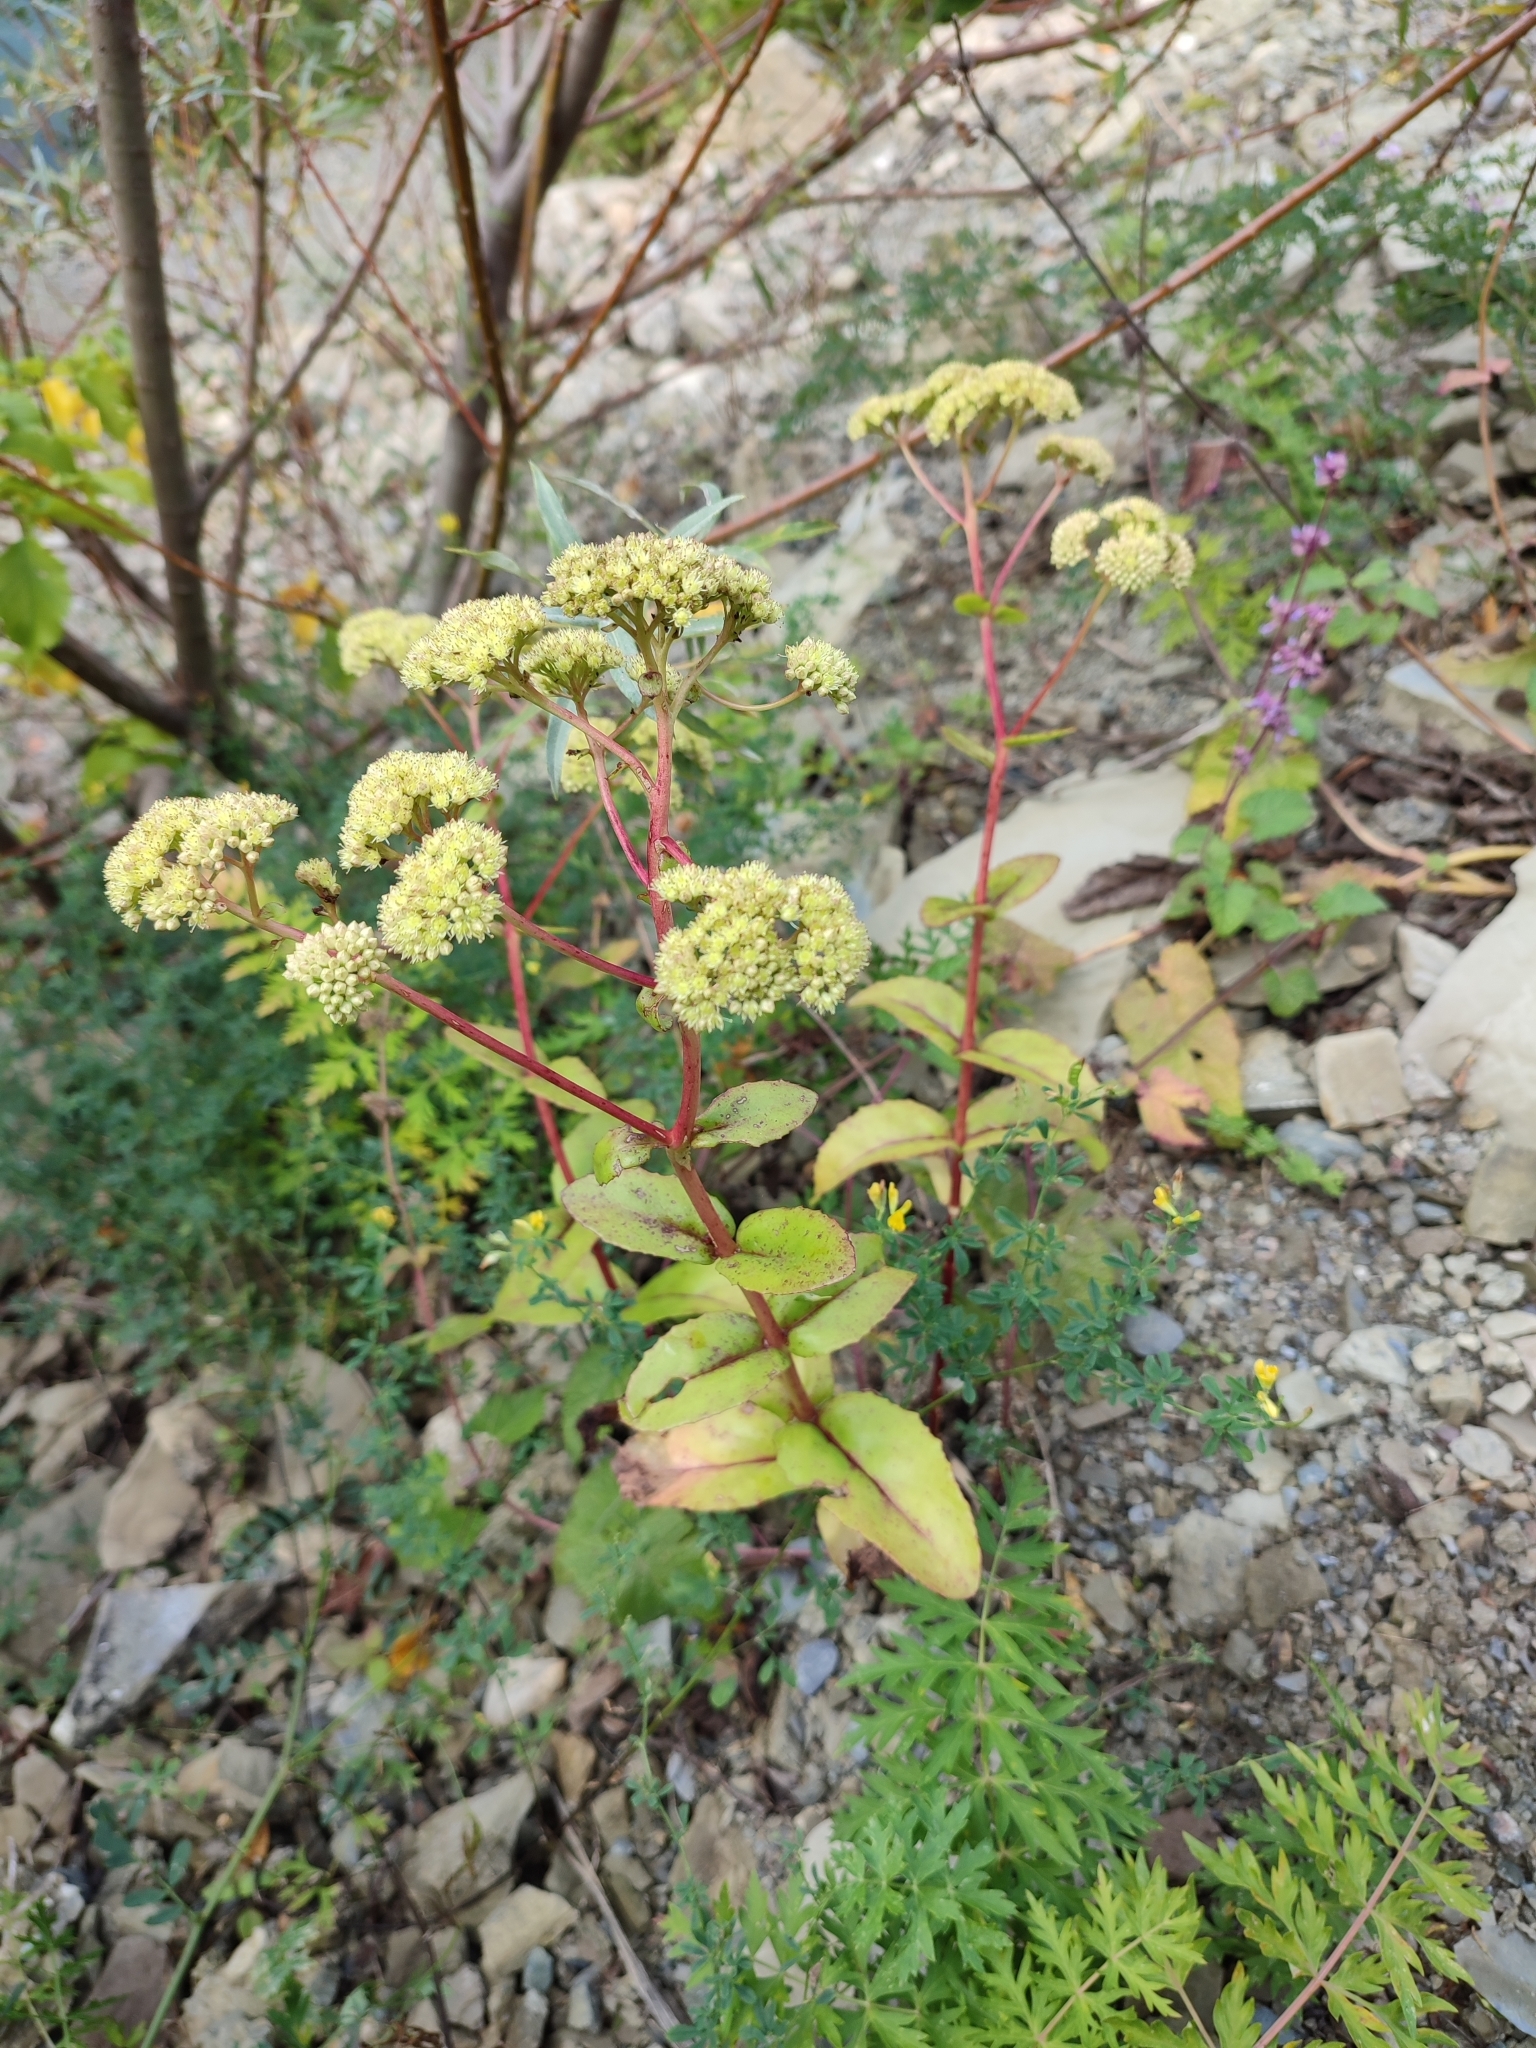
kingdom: Plantae
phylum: Tracheophyta
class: Magnoliopsida
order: Saxifragales
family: Crassulaceae
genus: Hylotelephium
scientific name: Hylotelephium maximum
